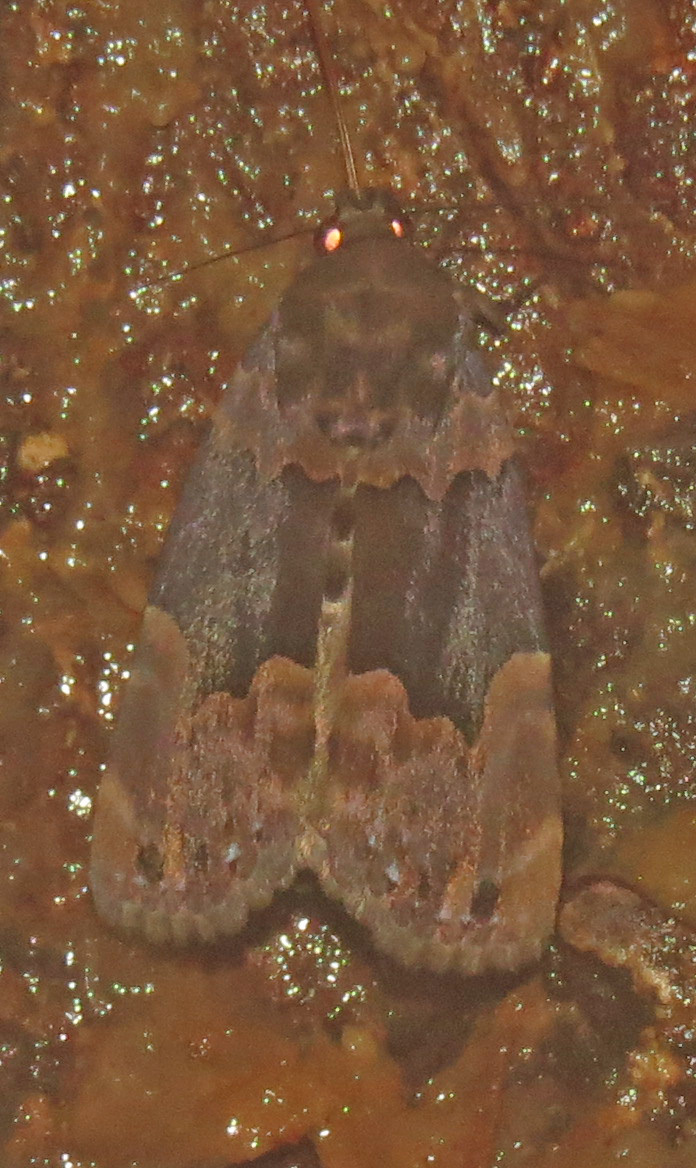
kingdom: Animalia
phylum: Arthropoda
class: Insecta
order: Lepidoptera
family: Erebidae
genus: Dinumma
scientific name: Dinumma deponens
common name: Purplish moth
